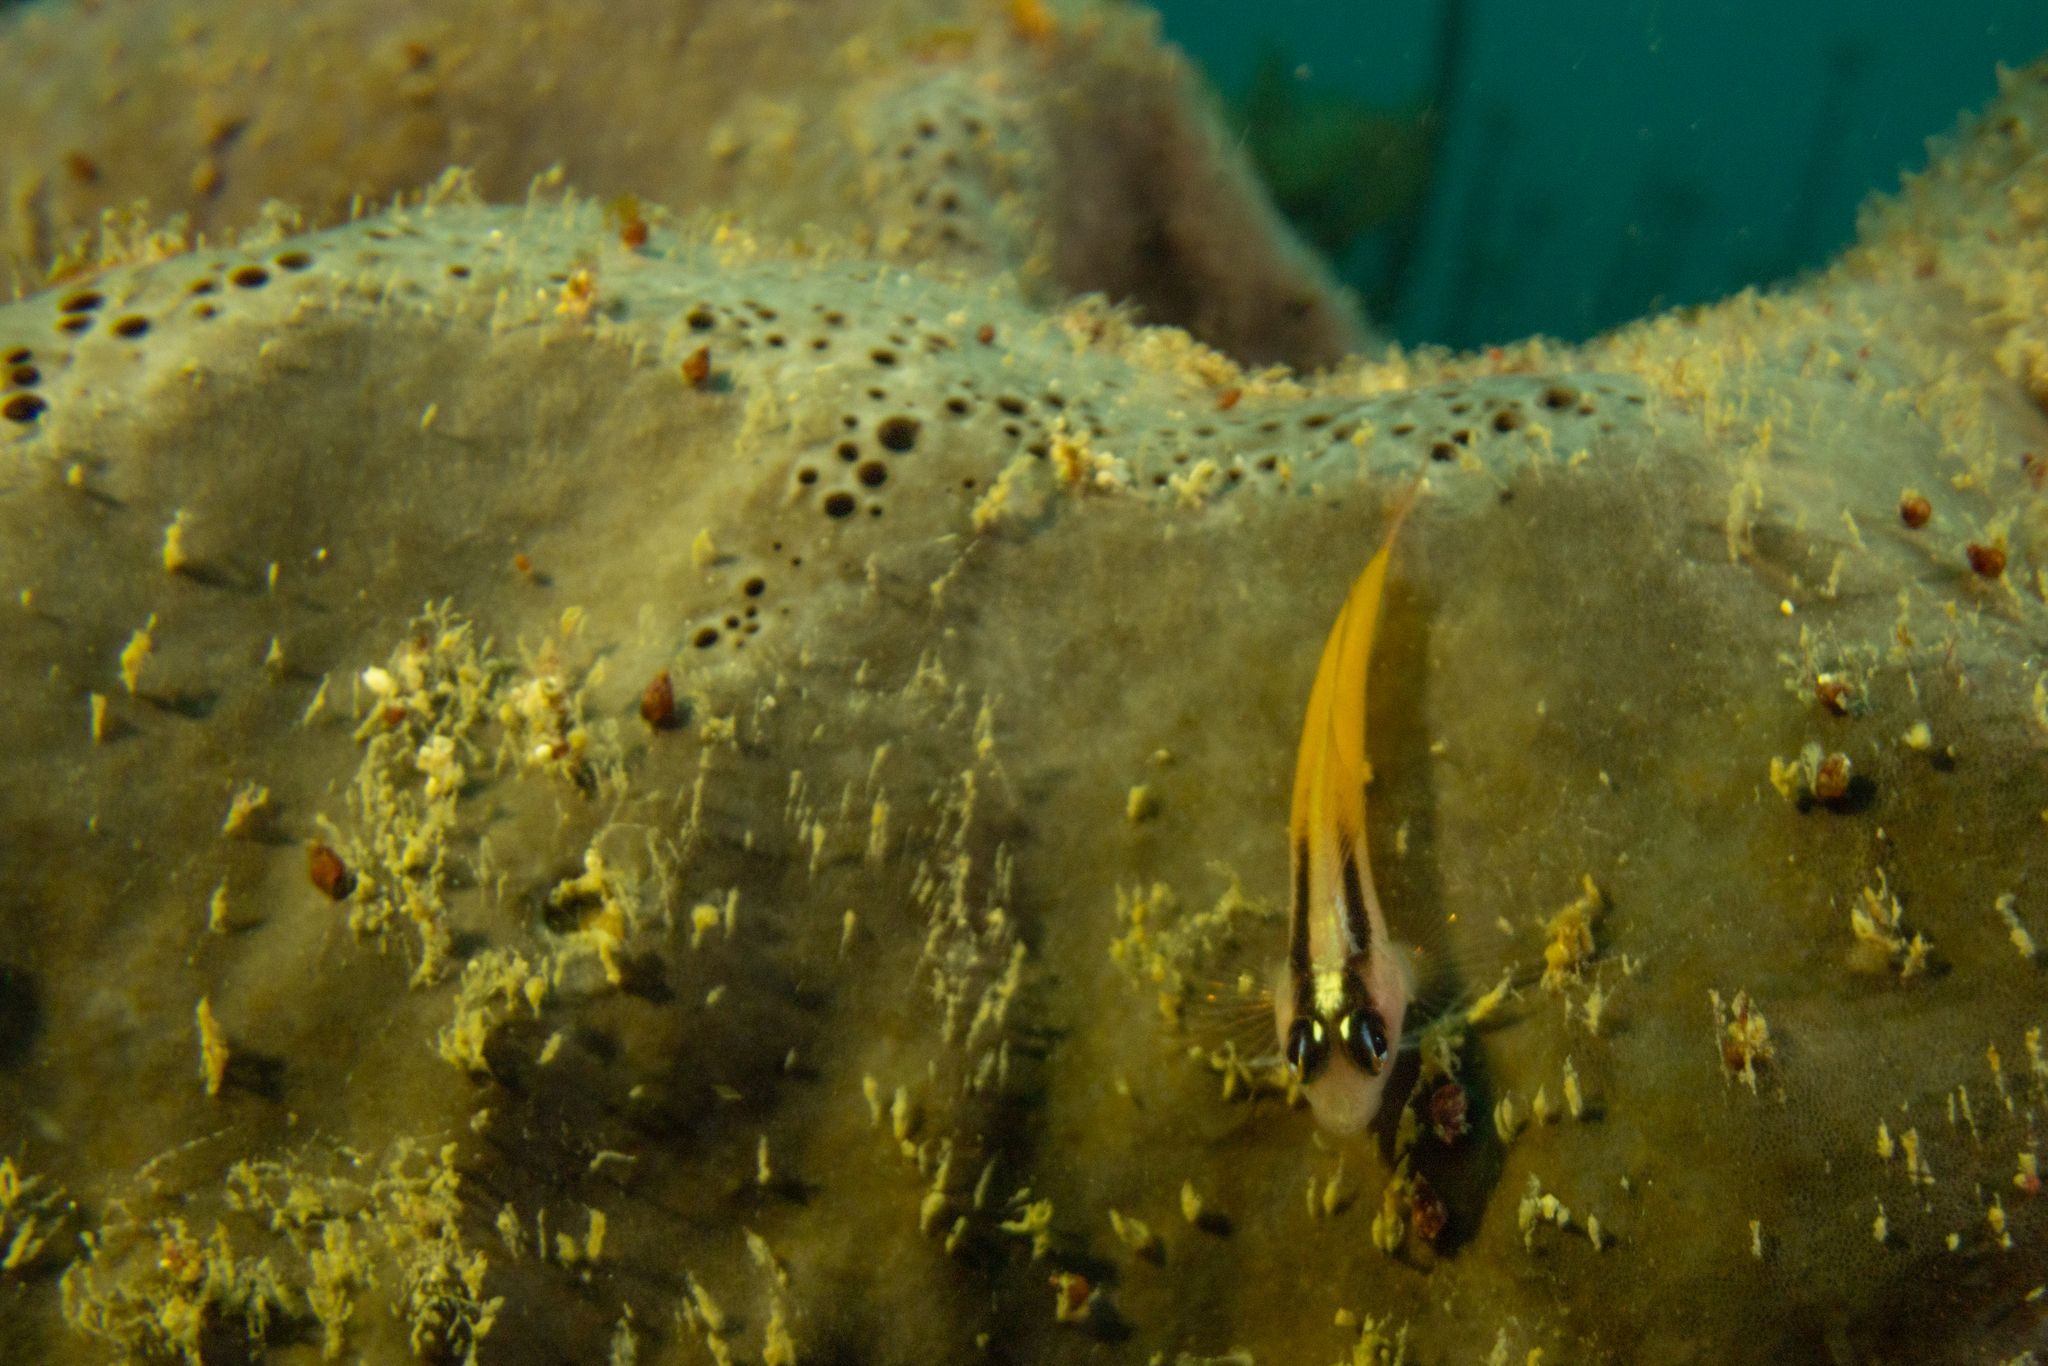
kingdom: Animalia
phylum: Chordata
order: Perciformes
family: Tripterygiidae
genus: Forsterygion
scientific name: Forsterygion flavonigrum
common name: Yellow-and-black triplefin
